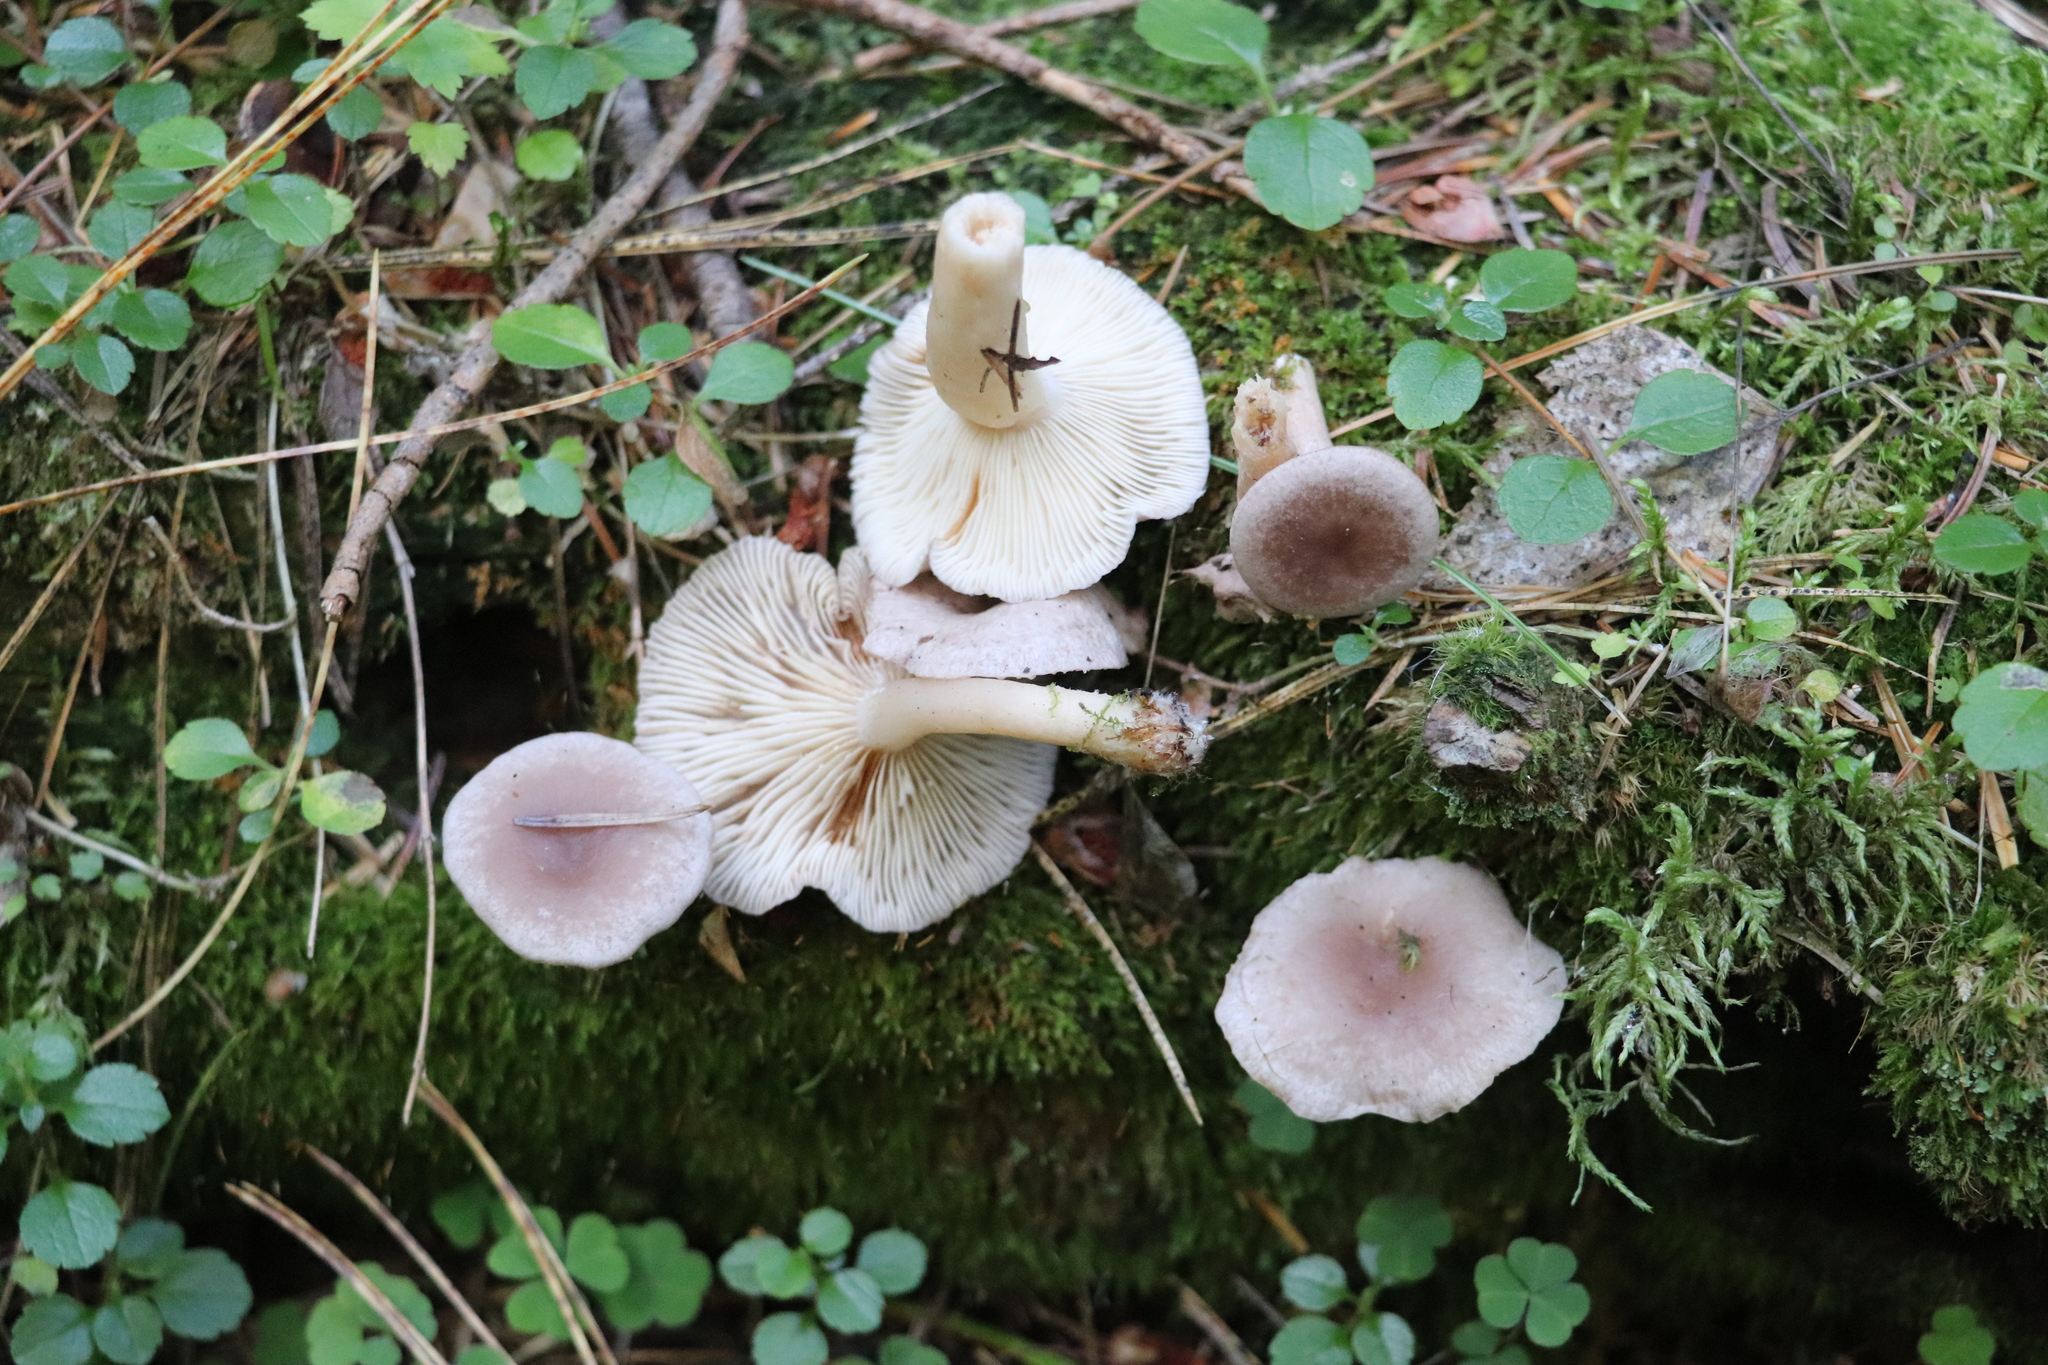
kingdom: Fungi
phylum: Basidiomycota
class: Agaricomycetes
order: Russulales
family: Russulaceae
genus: Lactarius
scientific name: Lactarius uvidus
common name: Shiner milkcap
